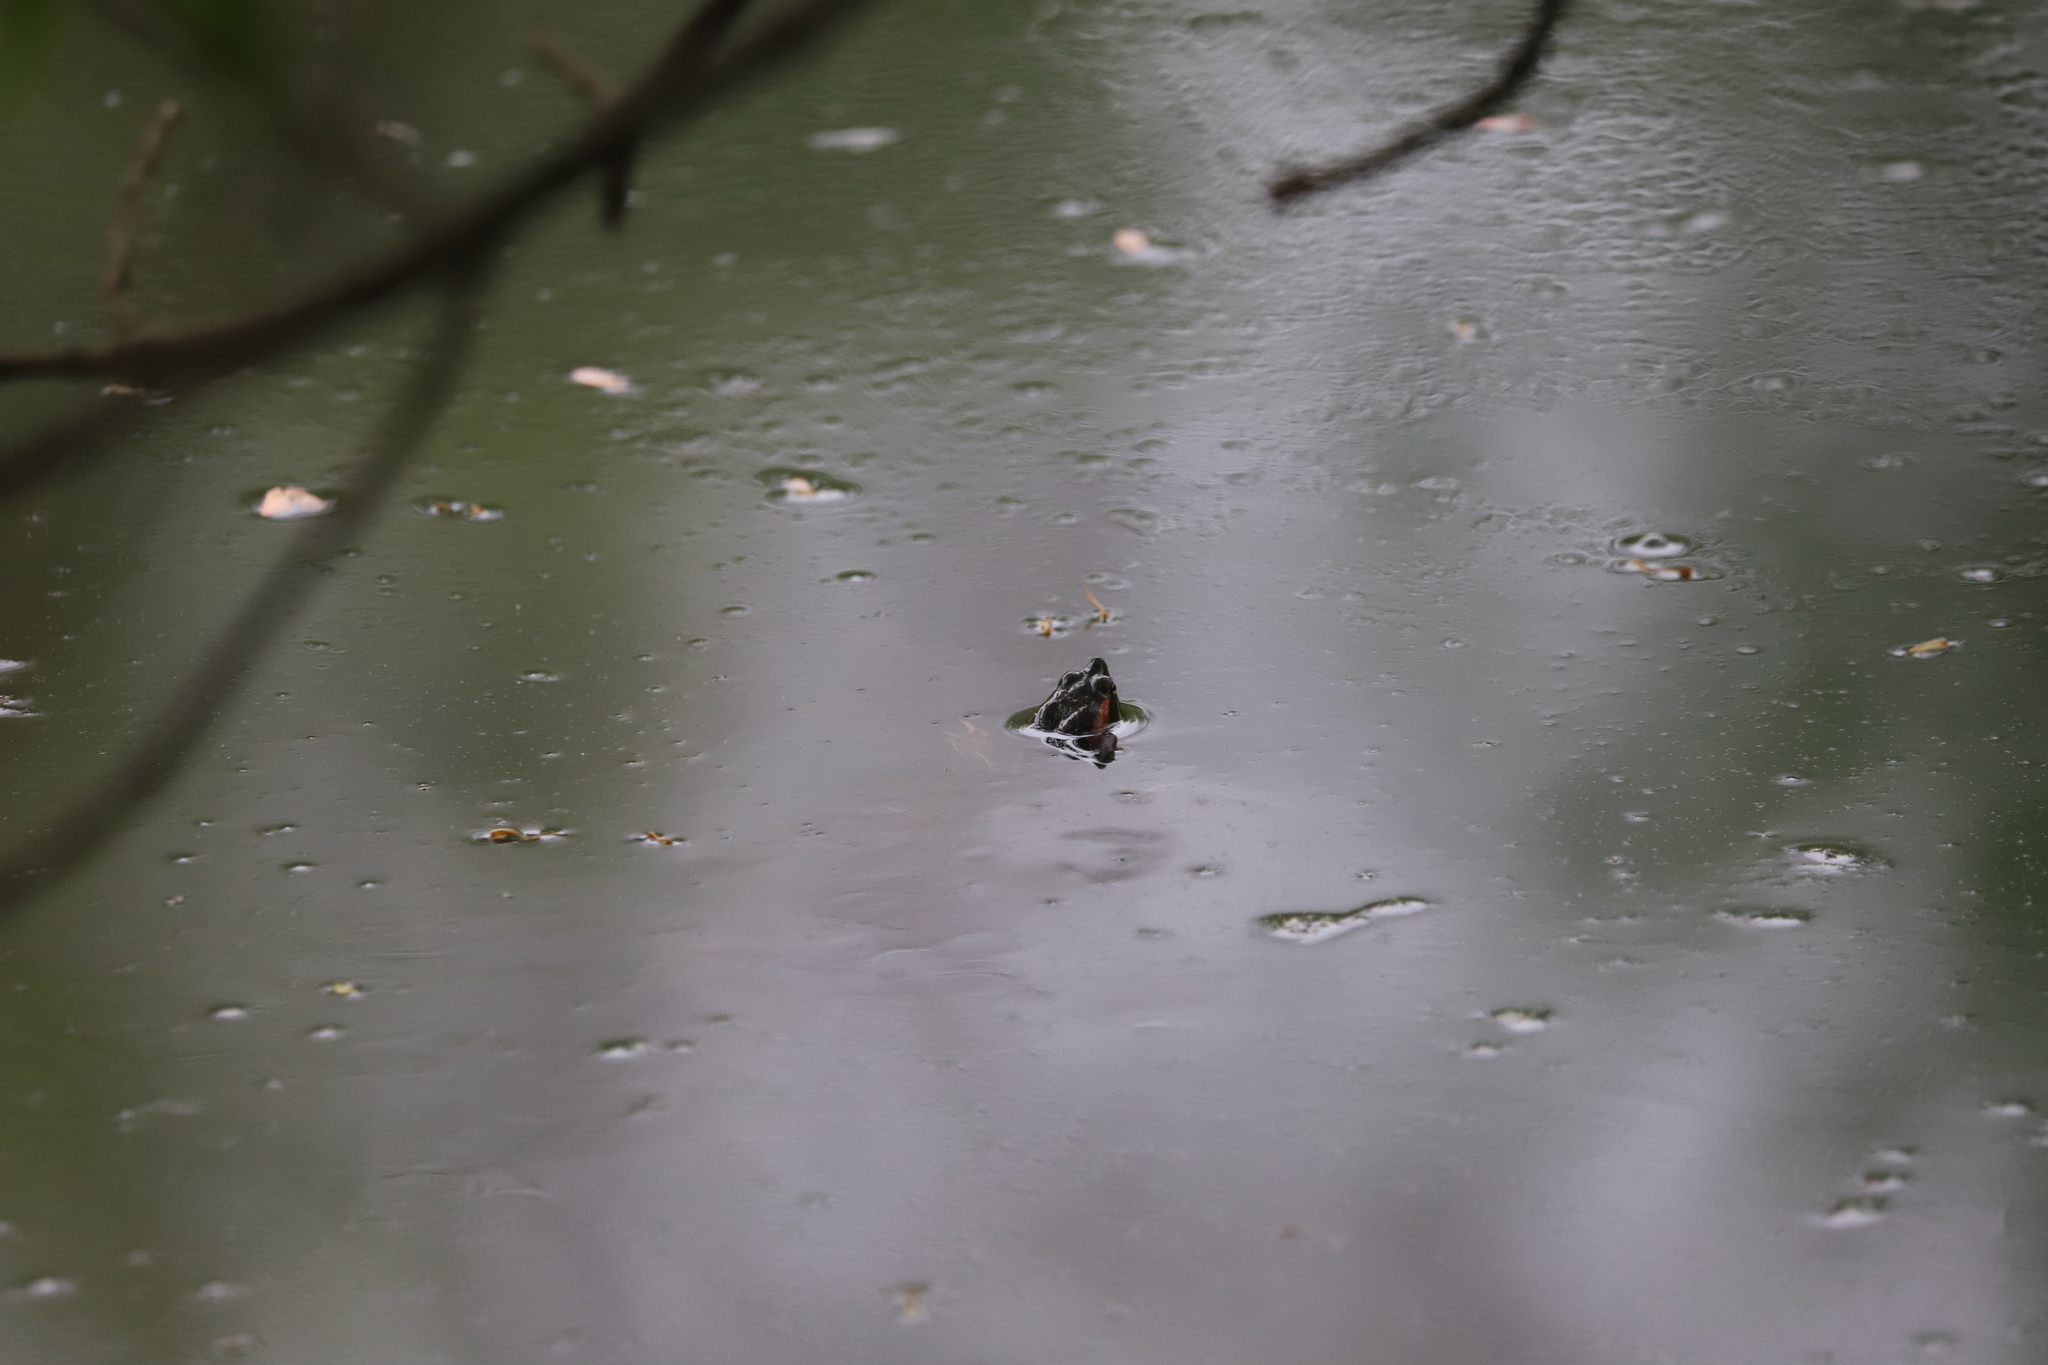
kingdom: Animalia
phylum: Chordata
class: Testudines
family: Emydidae
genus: Trachemys
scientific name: Trachemys scripta
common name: Slider
